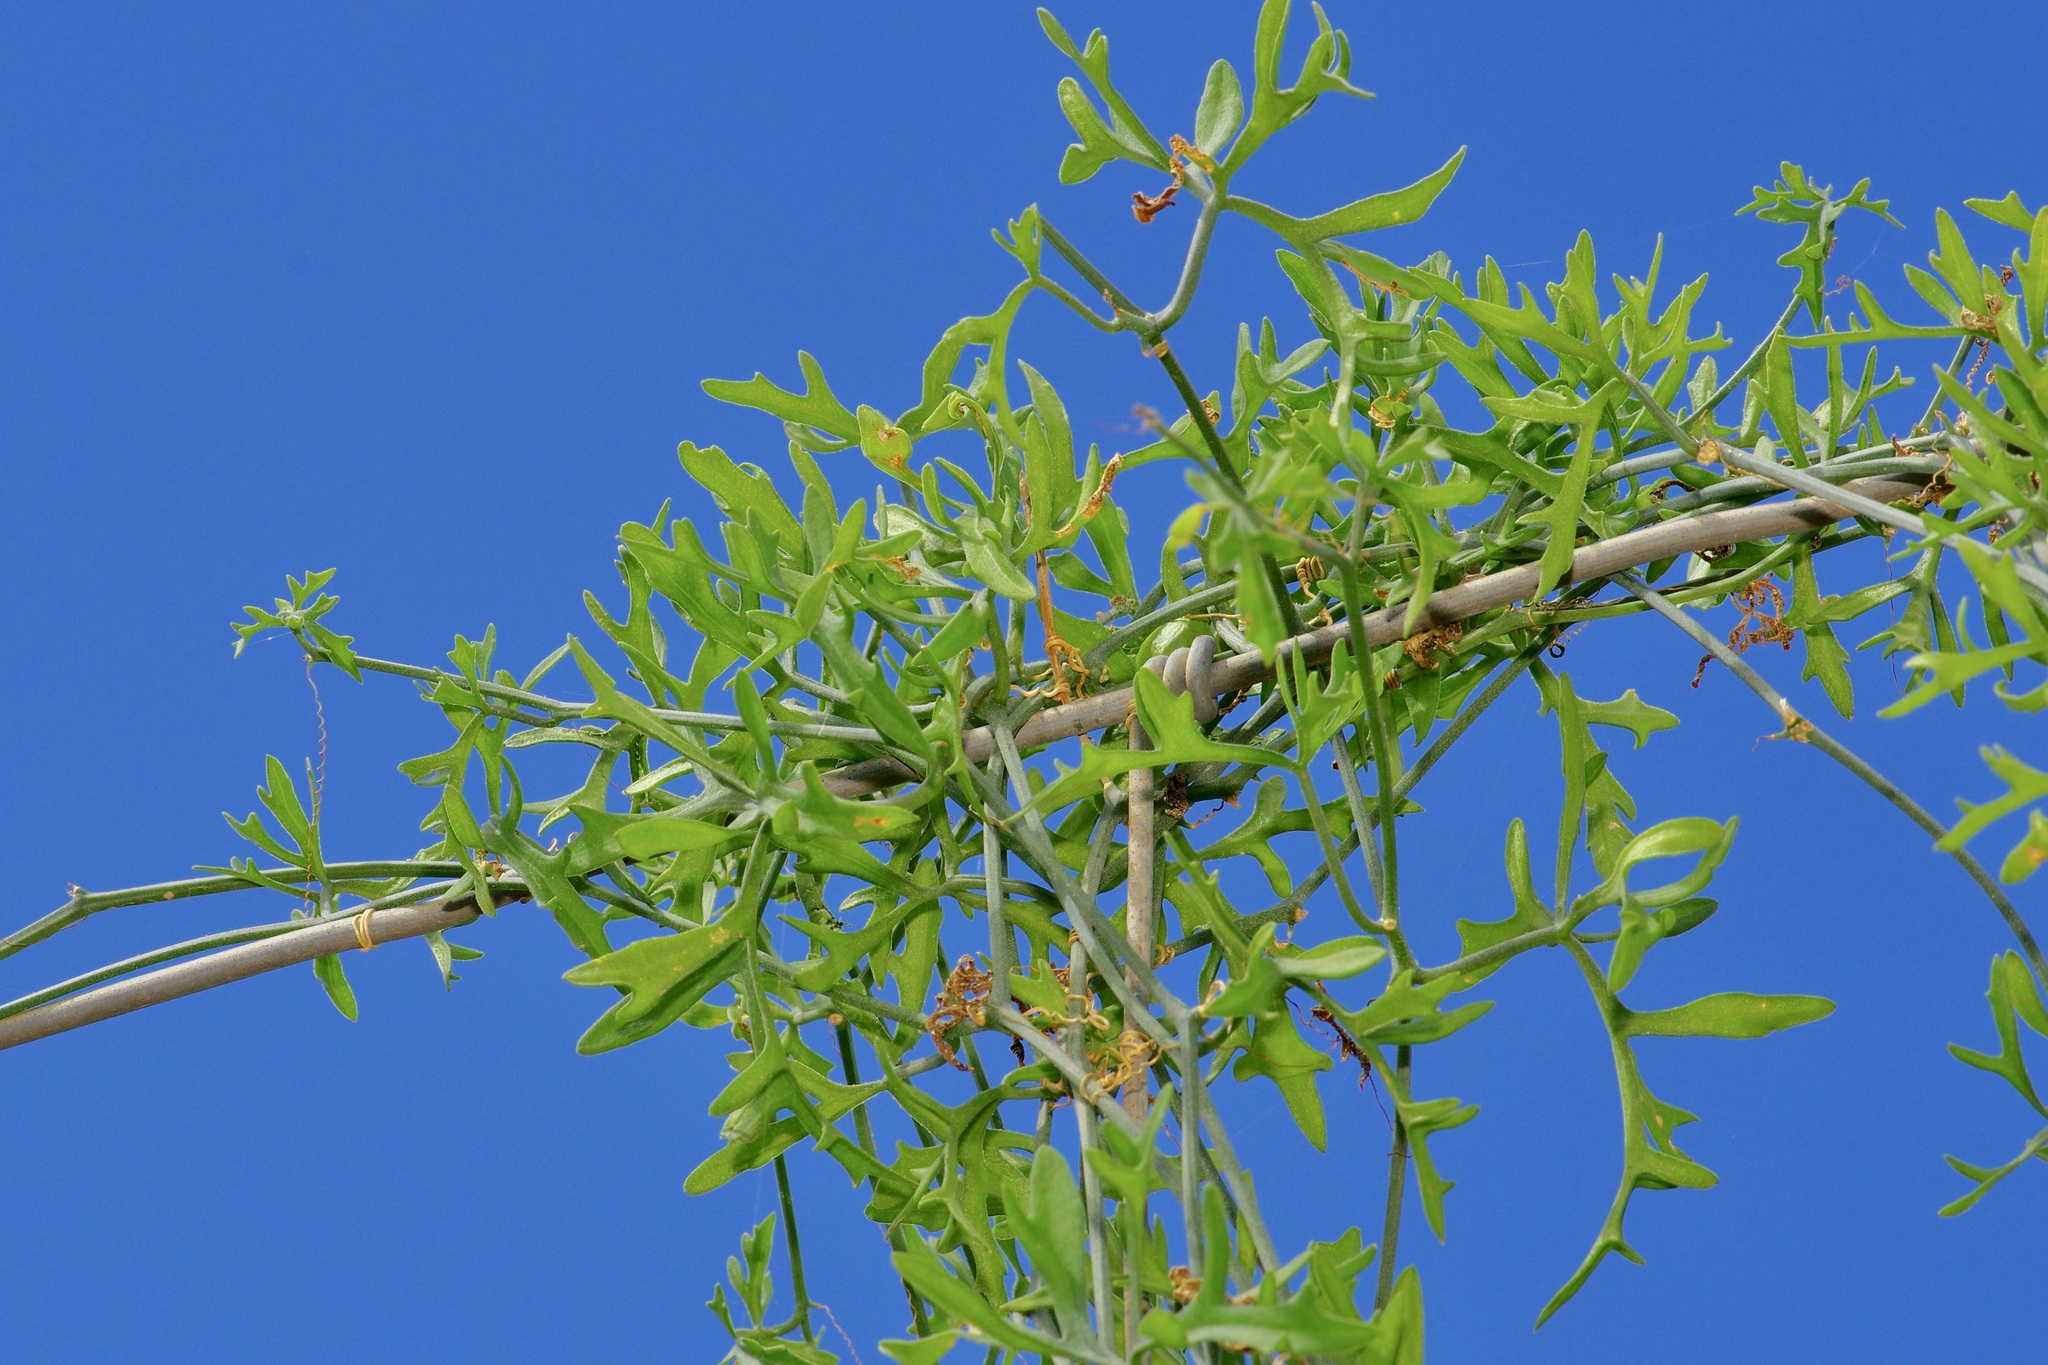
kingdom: Plantae
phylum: Tracheophyta
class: Magnoliopsida
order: Cucurbitales
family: Cucurbitaceae
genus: Ibervillea
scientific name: Ibervillea tenuisecta
